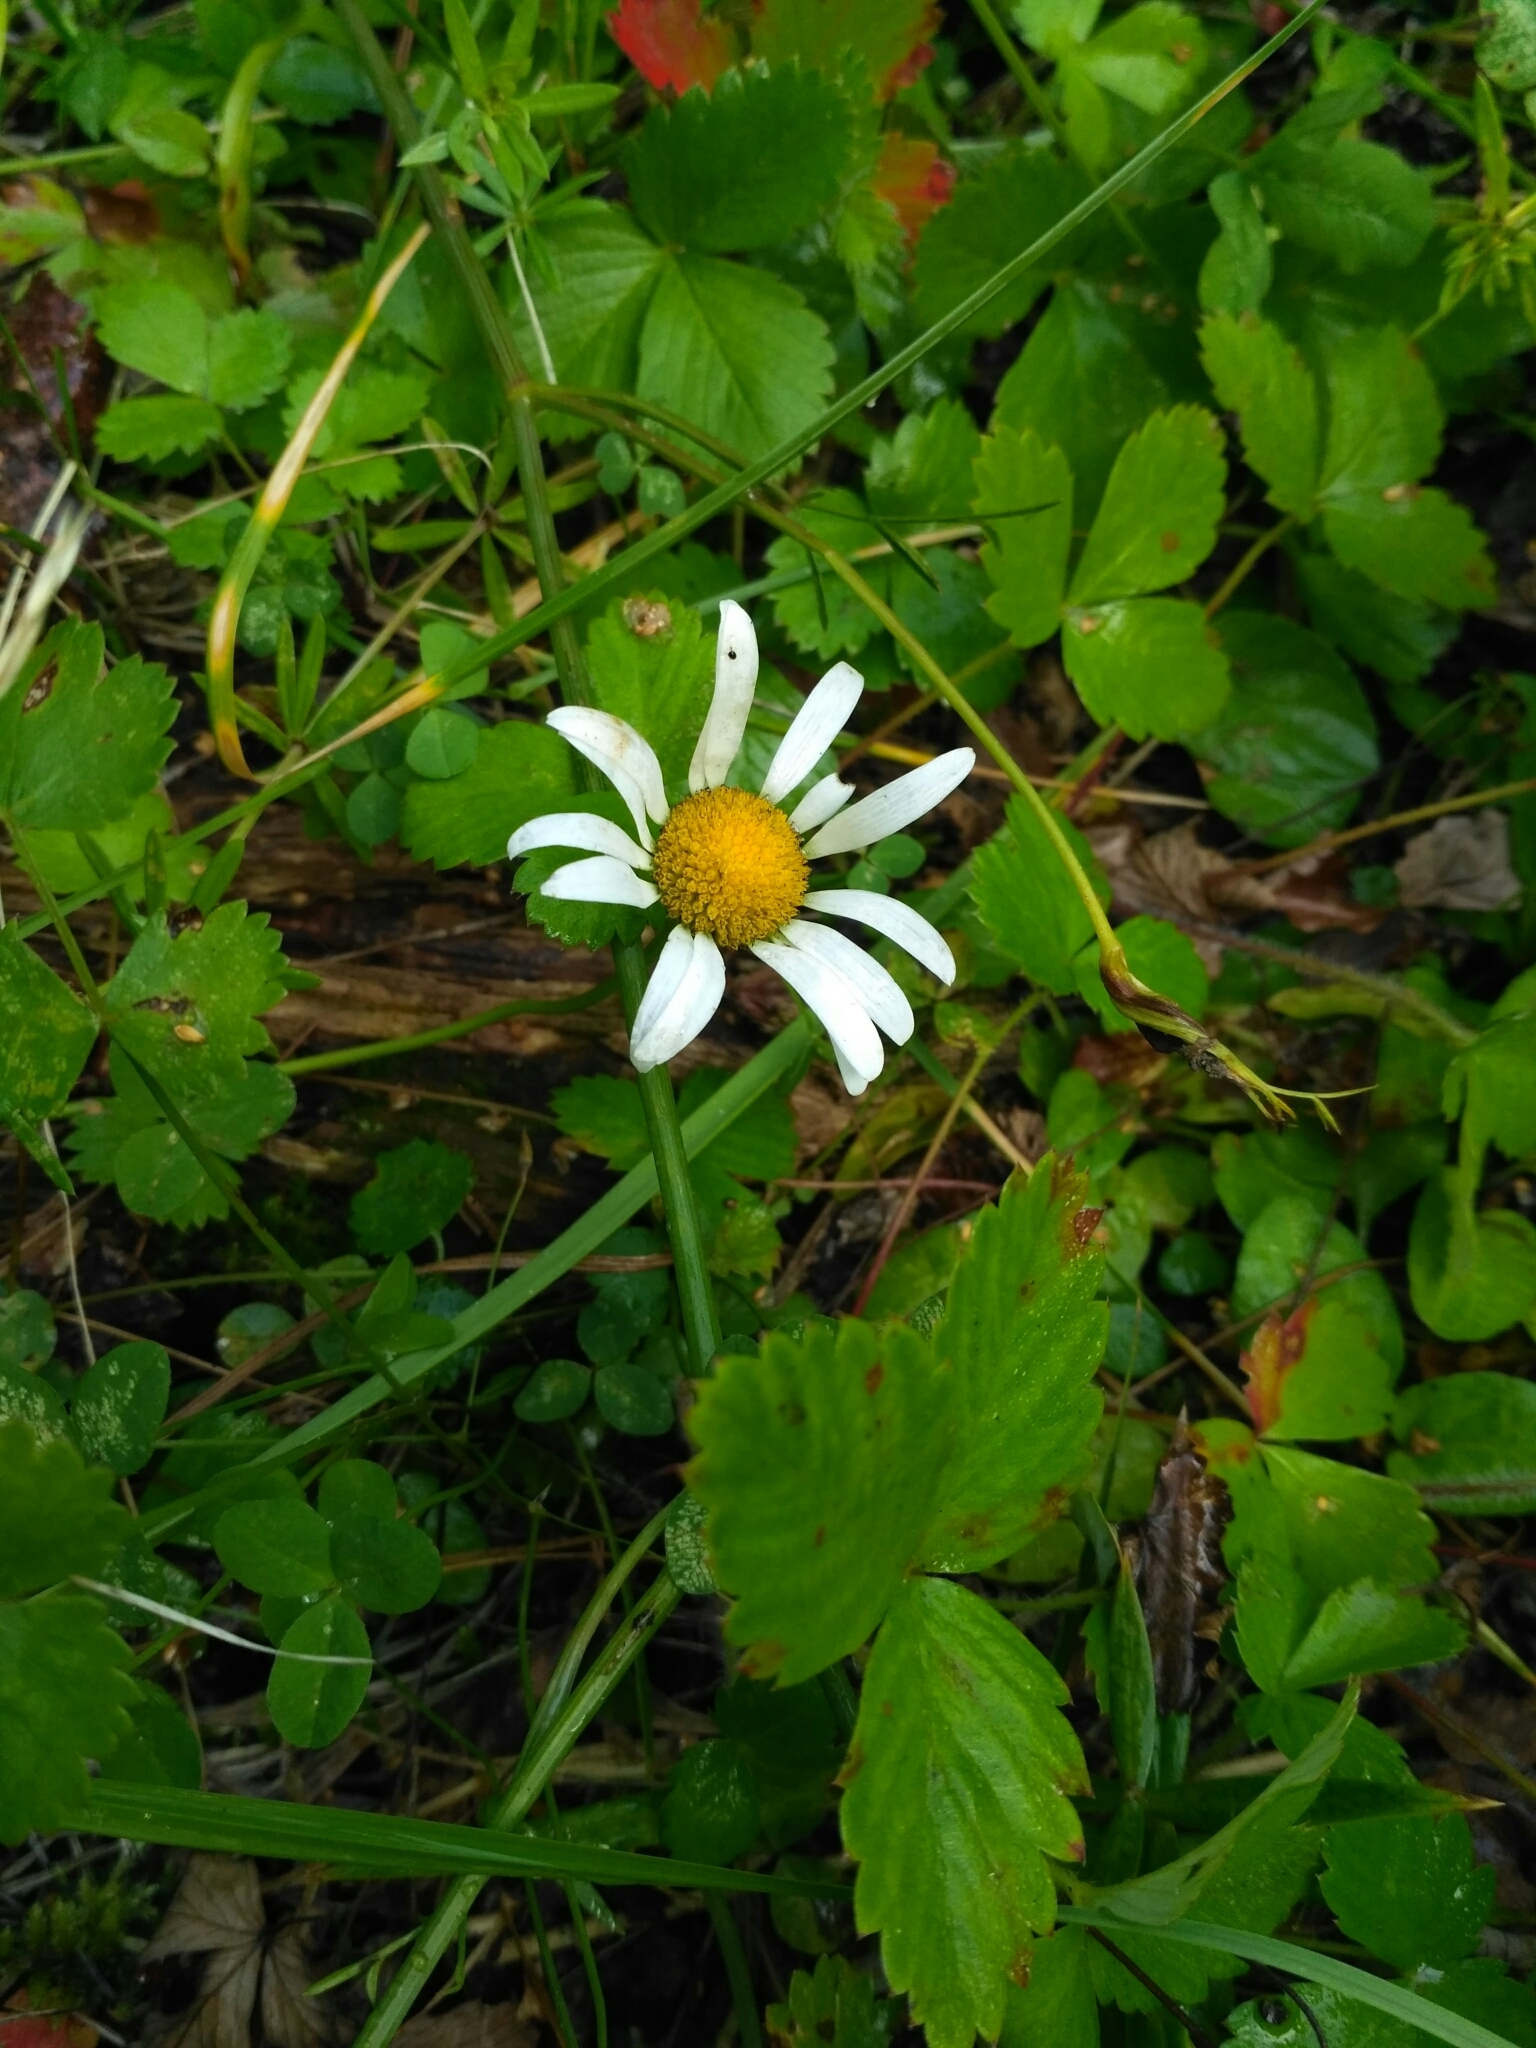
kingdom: Plantae
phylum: Tracheophyta
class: Magnoliopsida
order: Asterales
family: Asteraceae
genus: Leucanthemum
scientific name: Leucanthemum vulgare
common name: Oxeye daisy
